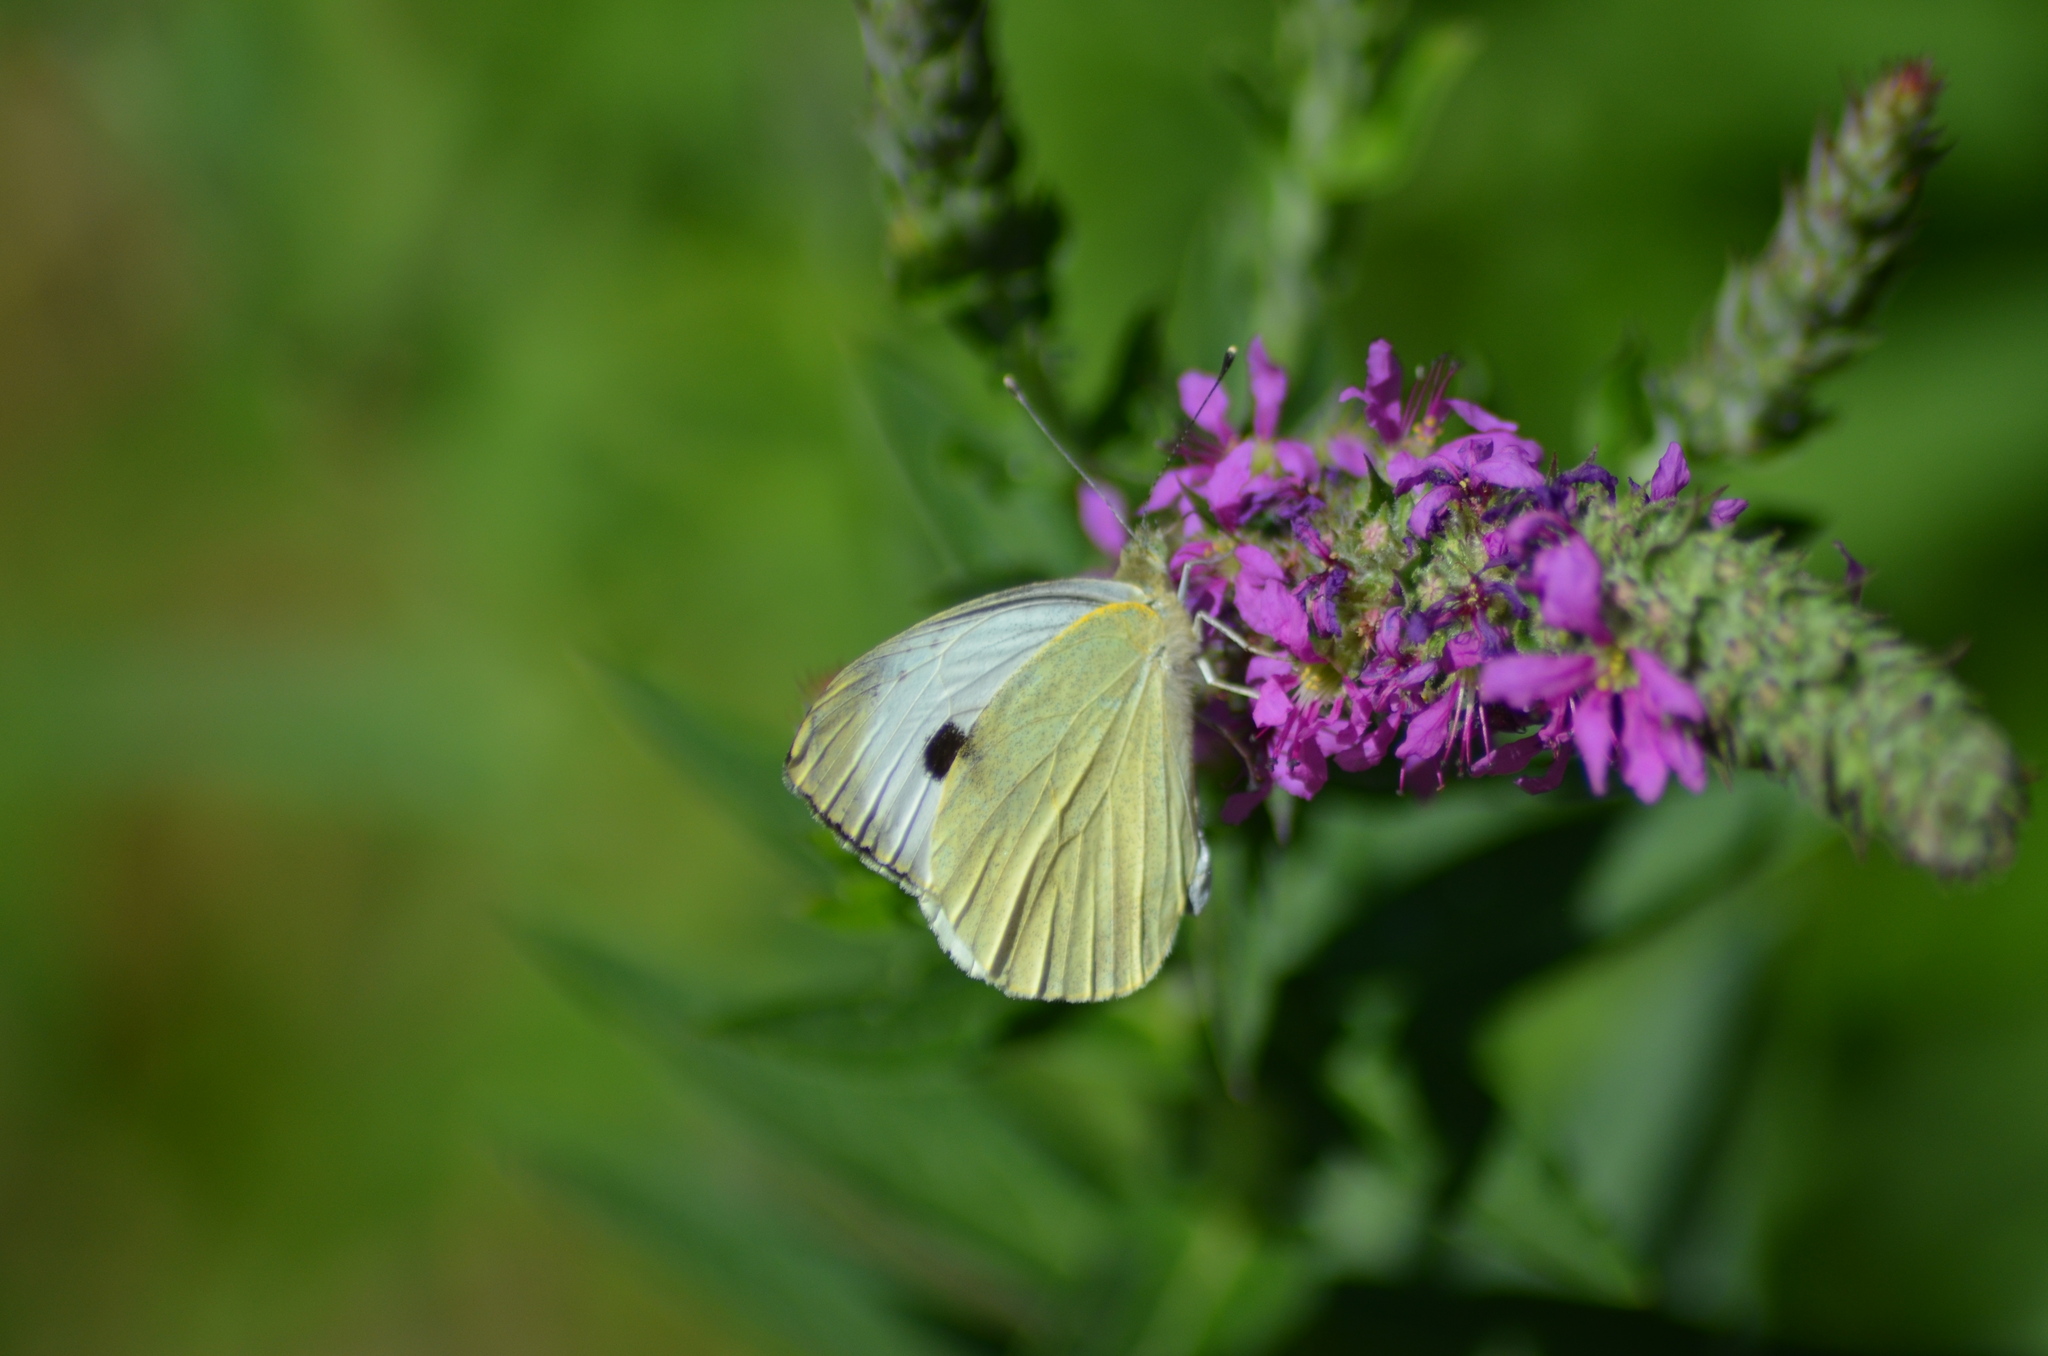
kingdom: Animalia
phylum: Arthropoda
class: Insecta
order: Lepidoptera
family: Pieridae
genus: Pieris
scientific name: Pieris brassicae
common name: Large white
